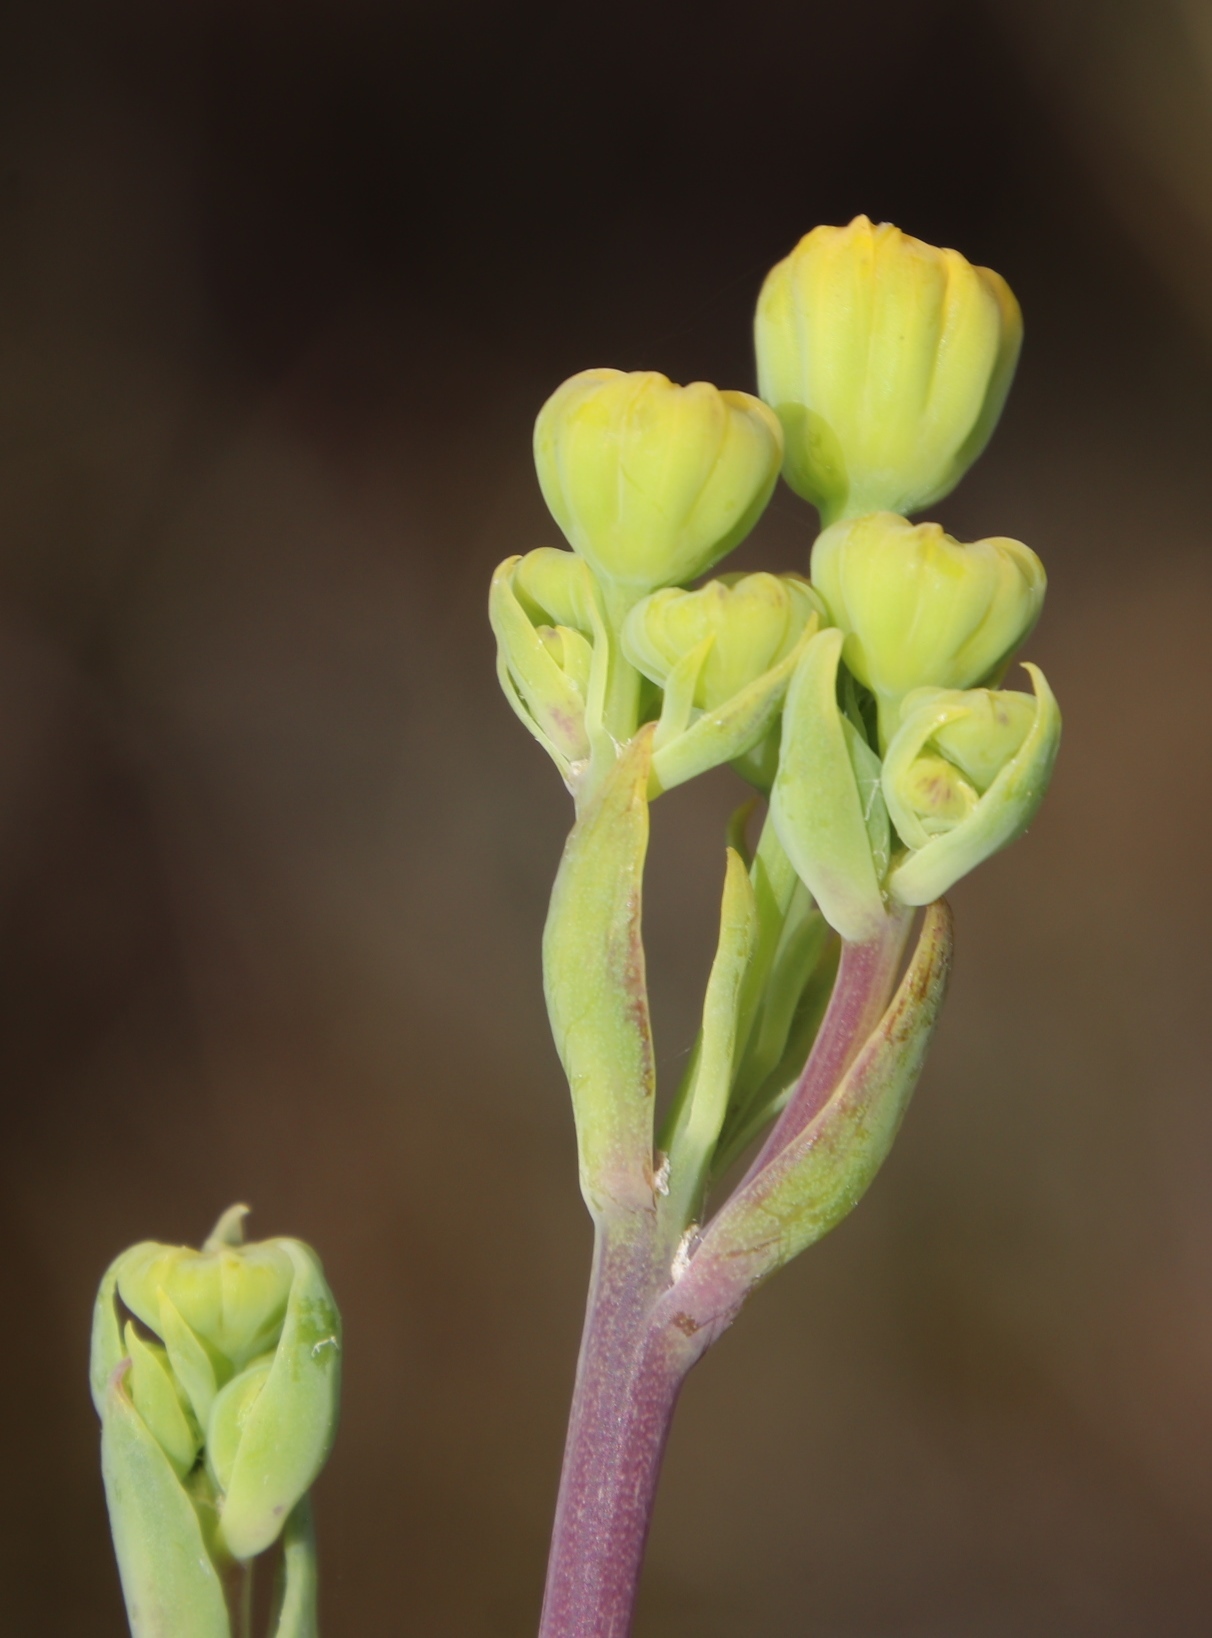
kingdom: Plantae
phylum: Tracheophyta
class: Magnoliopsida
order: Asterales
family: Asteraceae
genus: Othonna
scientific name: Othonna quinquedentata
